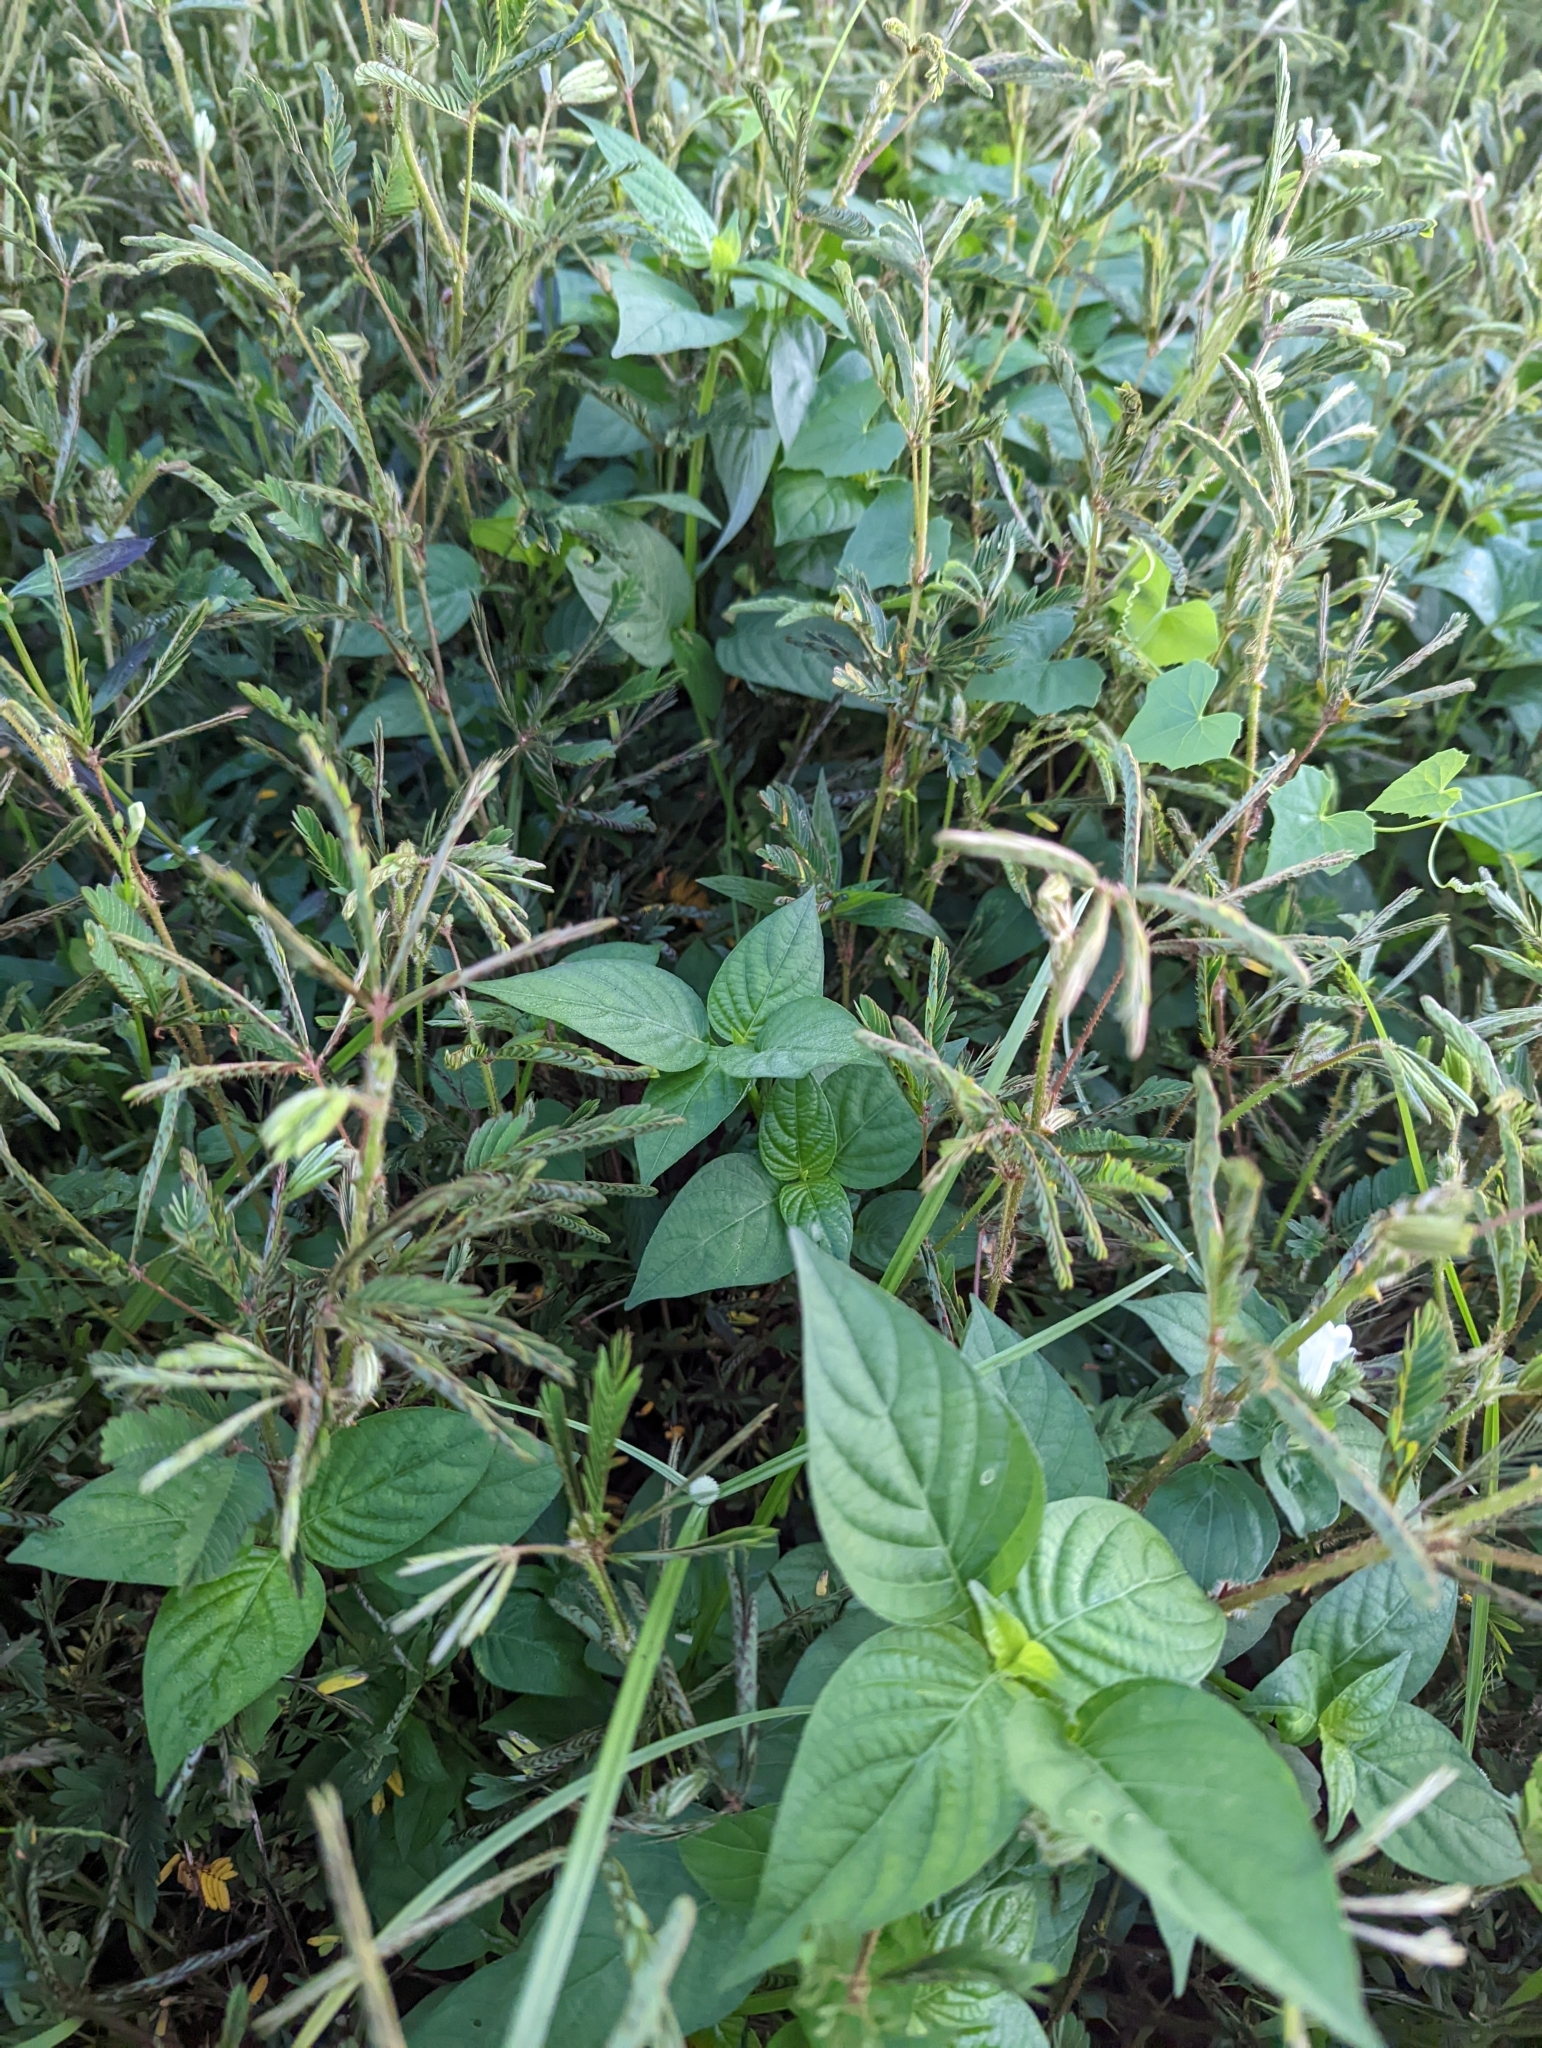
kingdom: Plantae
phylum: Tracheophyta
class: Magnoliopsida
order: Lamiales
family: Acanthaceae
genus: Asystasia
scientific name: Asystasia gangetica
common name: Chinese violet
